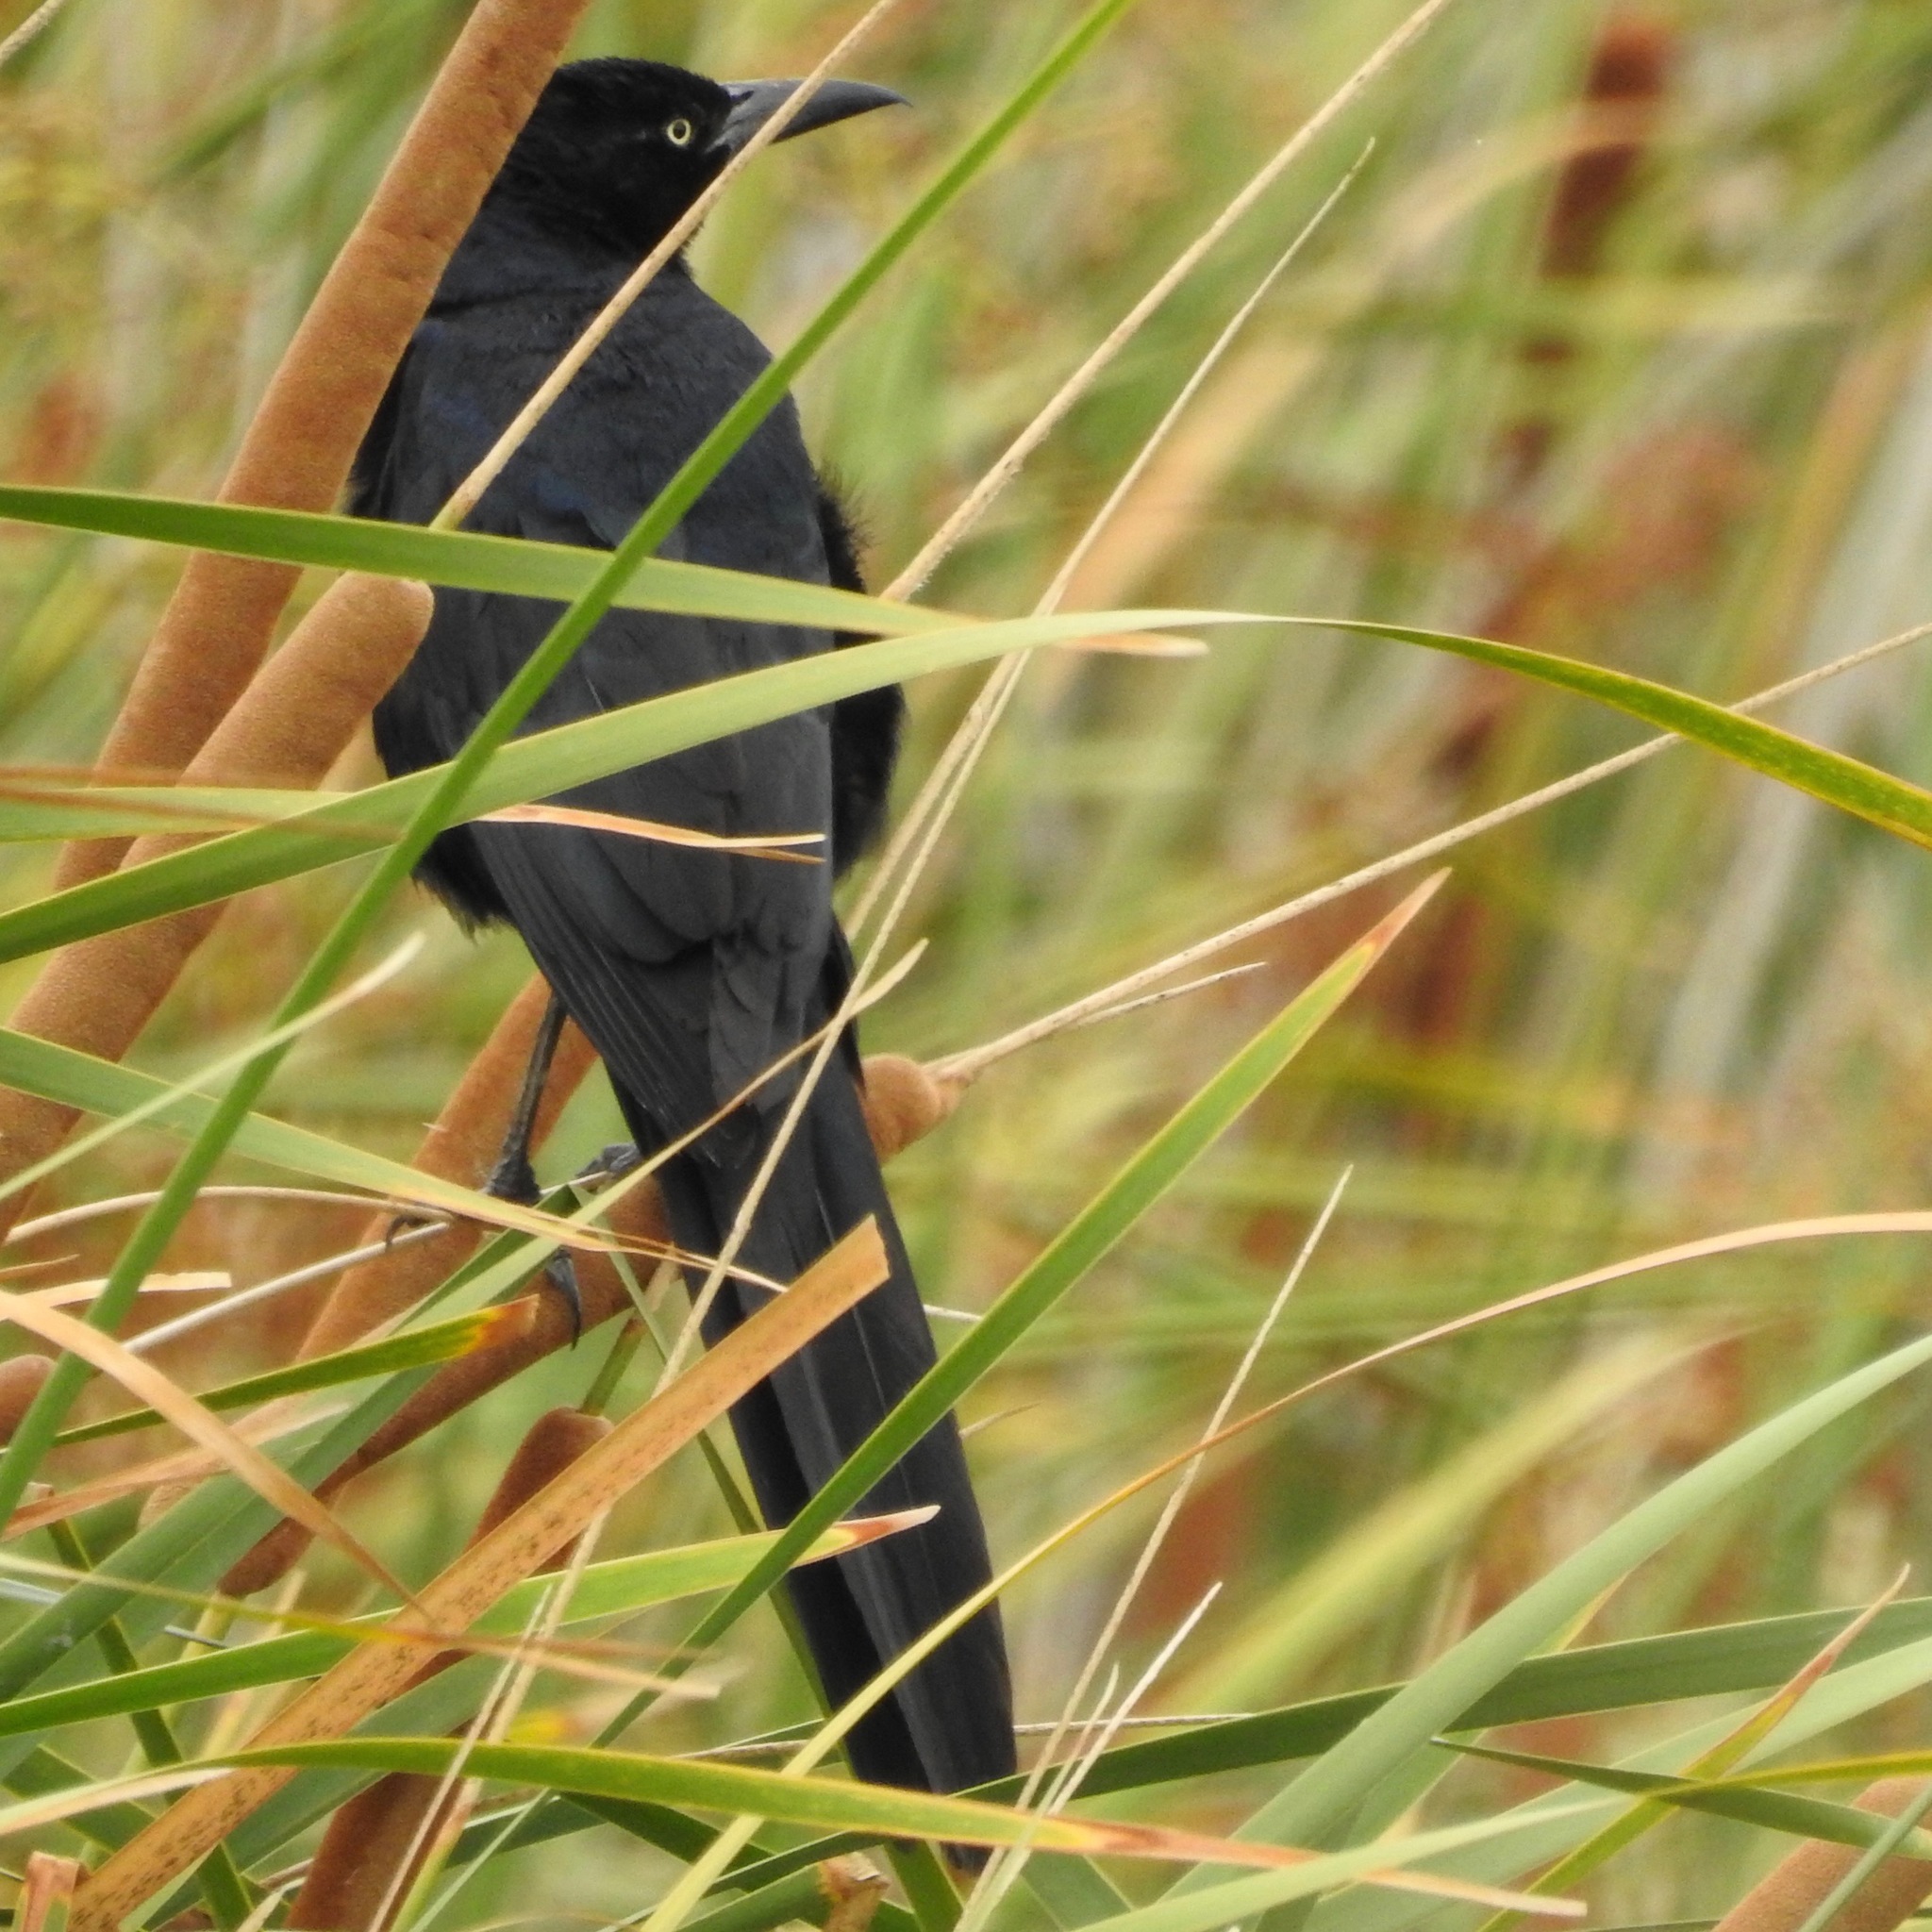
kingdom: Animalia
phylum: Chordata
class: Aves
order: Passeriformes
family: Icteridae
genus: Quiscalus
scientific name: Quiscalus mexicanus
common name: Great-tailed grackle
